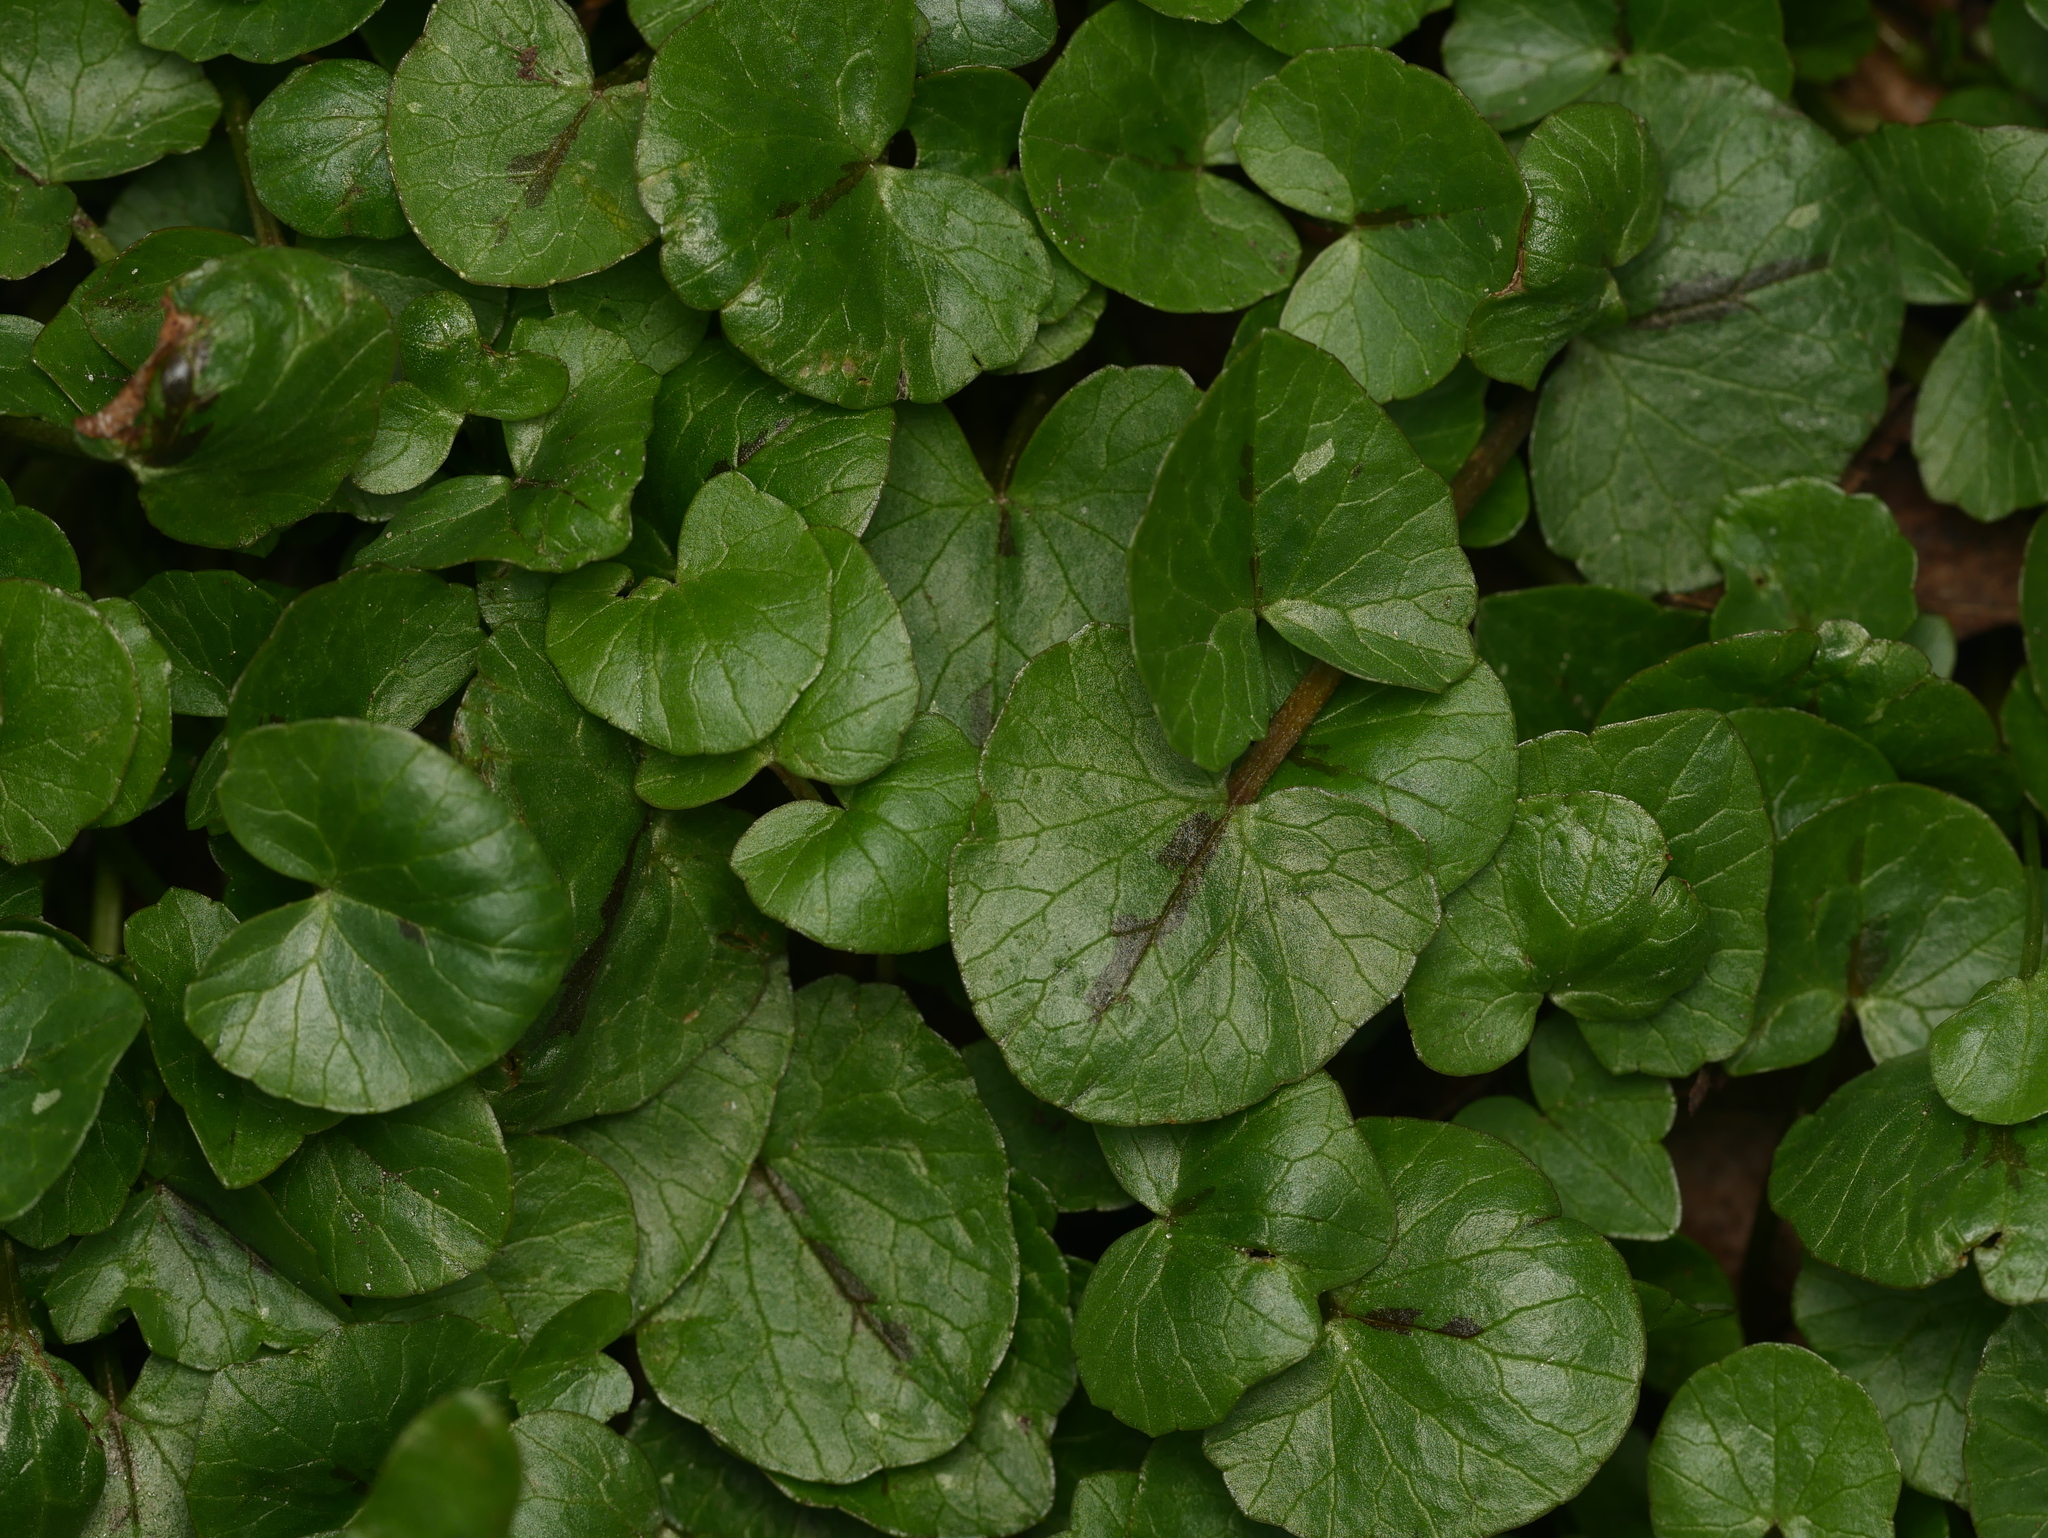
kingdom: Plantae
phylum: Tracheophyta
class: Magnoliopsida
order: Ranunculales
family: Ranunculaceae
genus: Ficaria
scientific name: Ficaria verna
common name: Lesser celandine
